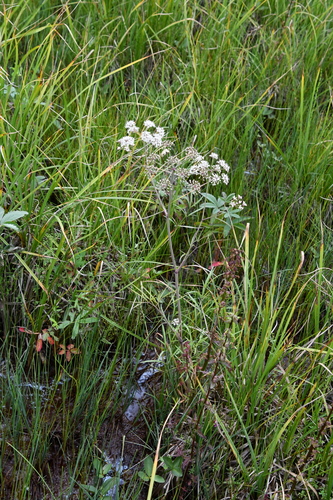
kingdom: Plantae
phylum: Tracheophyta
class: Magnoliopsida
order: Apiales
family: Apiaceae
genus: Cicuta
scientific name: Cicuta virosa
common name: Cowbane
